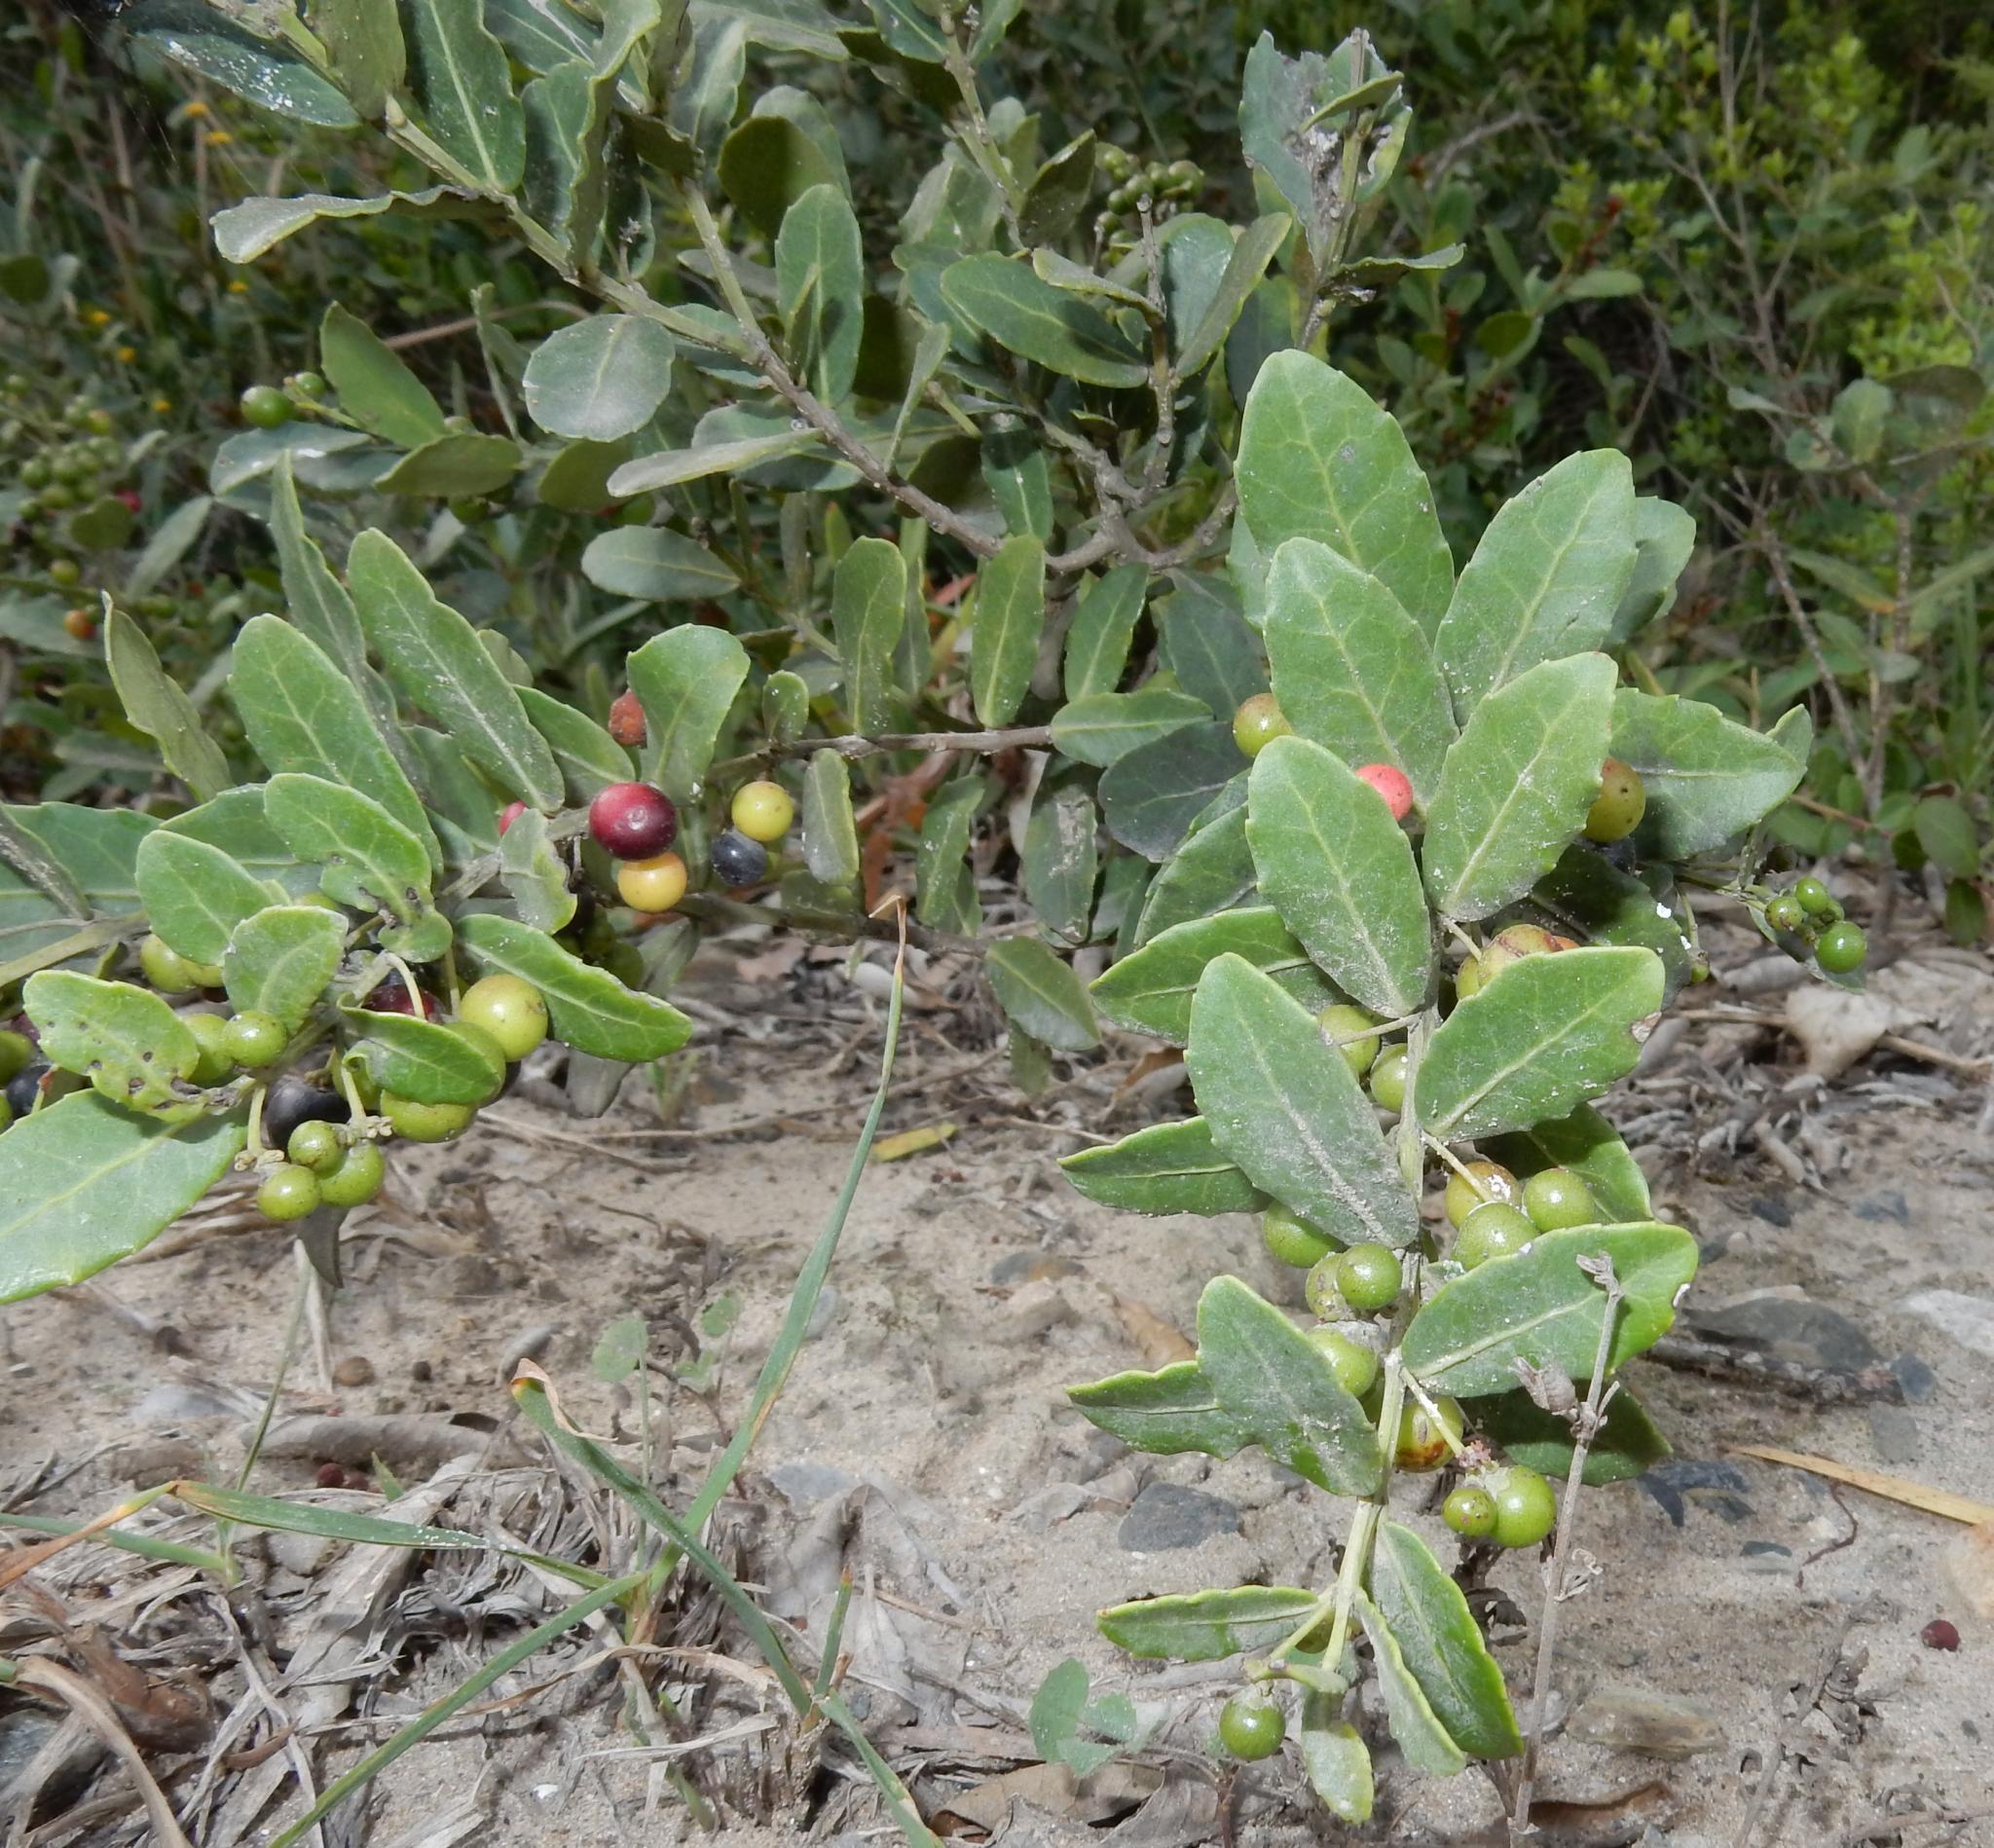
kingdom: Plantae
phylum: Tracheophyta
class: Magnoliopsida
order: Celastrales
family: Celastraceae
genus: Lauridia
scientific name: Lauridia tetragona
